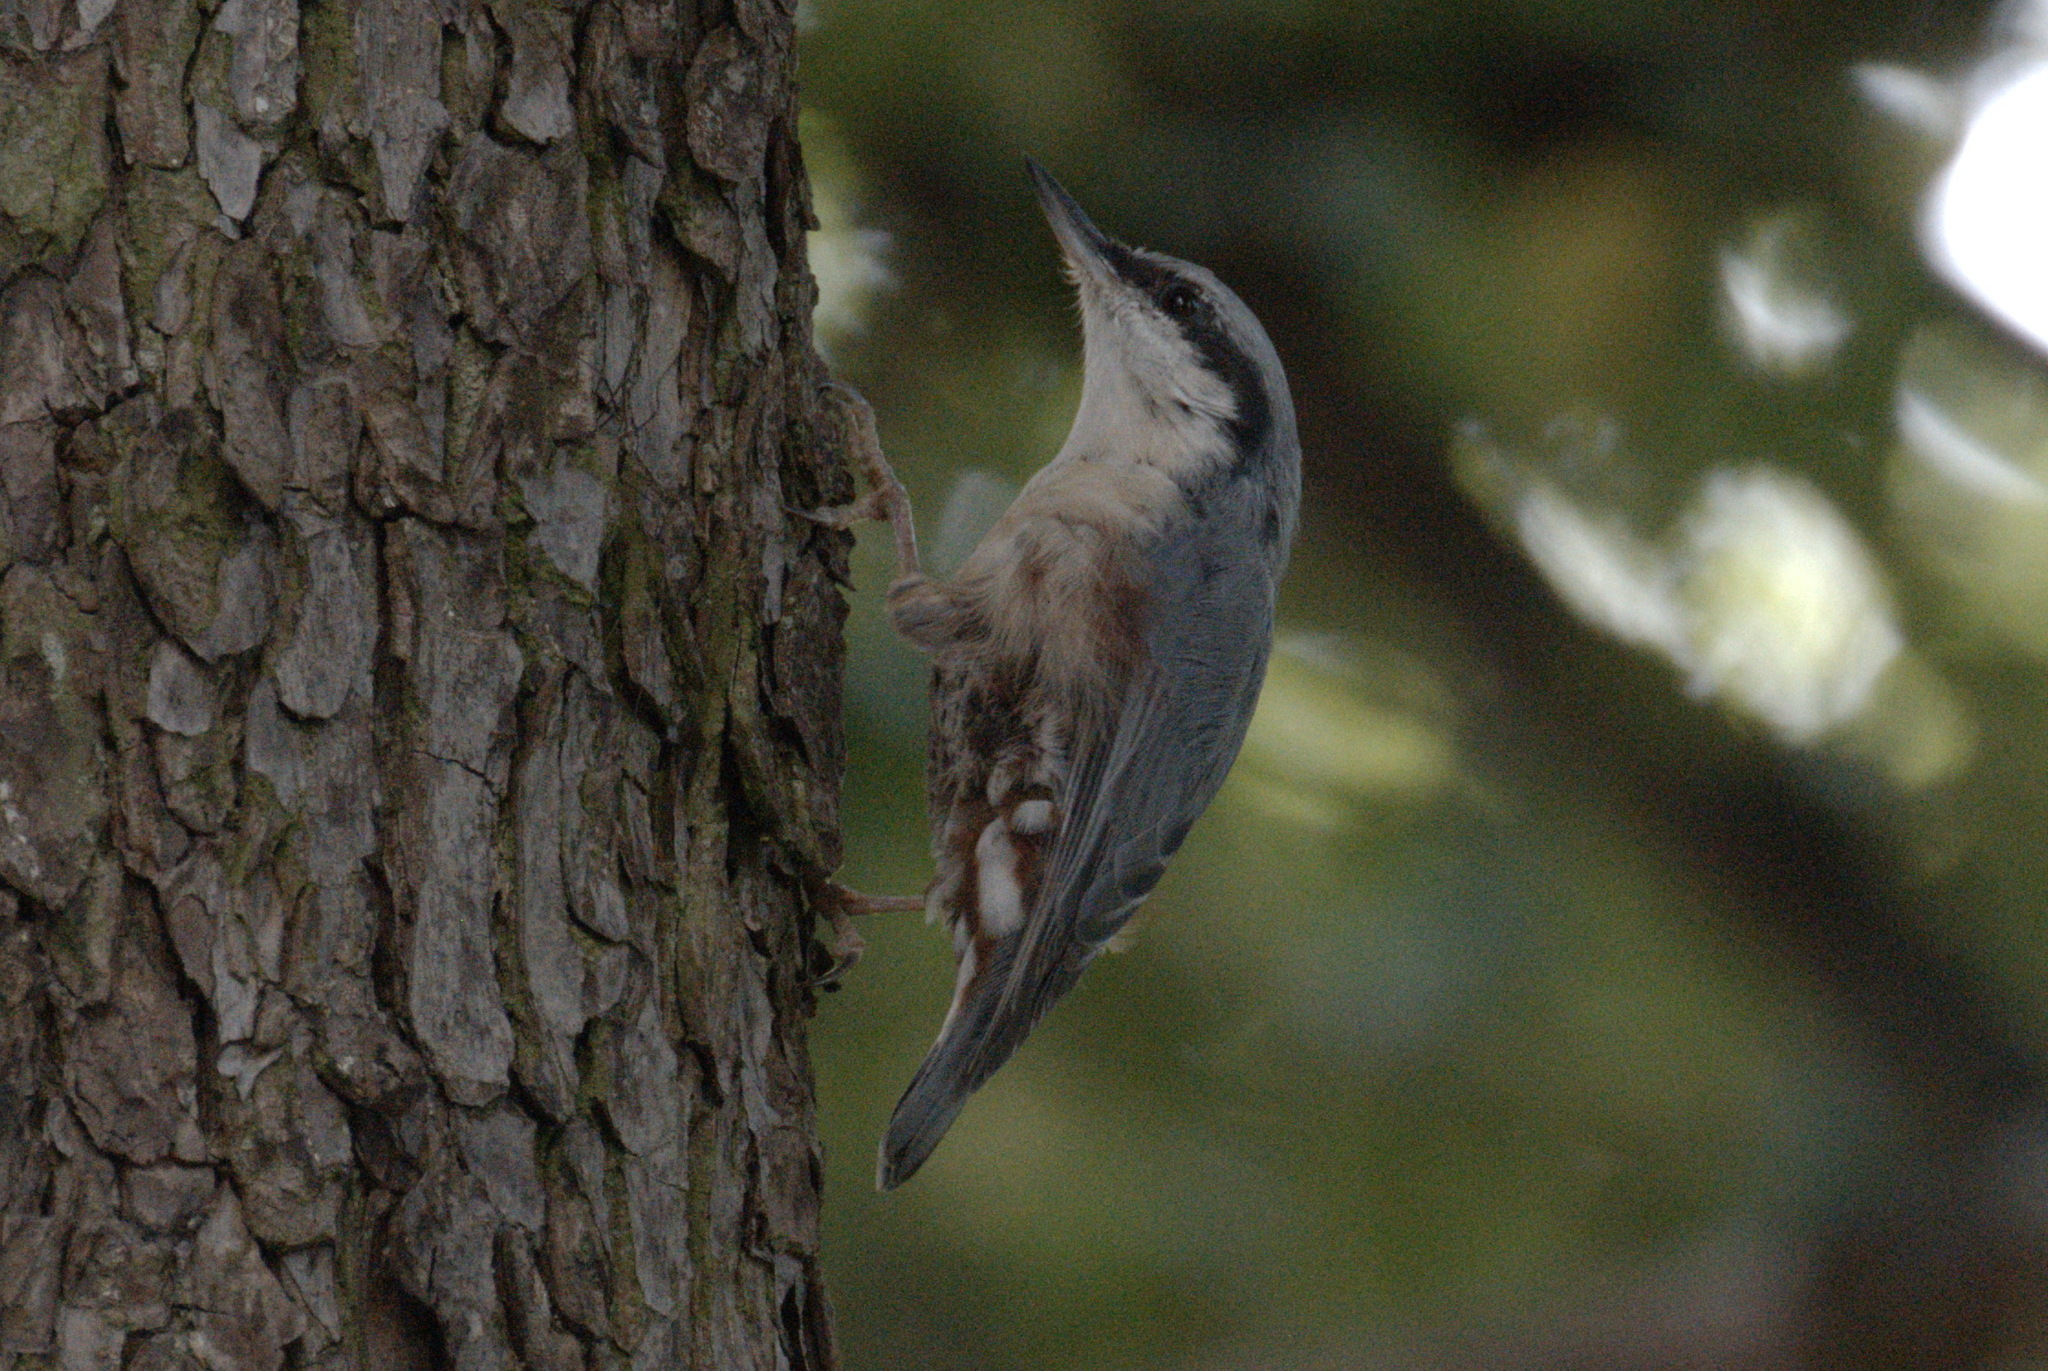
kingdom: Animalia
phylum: Chordata
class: Aves
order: Passeriformes
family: Sittidae
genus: Sitta
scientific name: Sitta europaea
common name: Eurasian nuthatch
